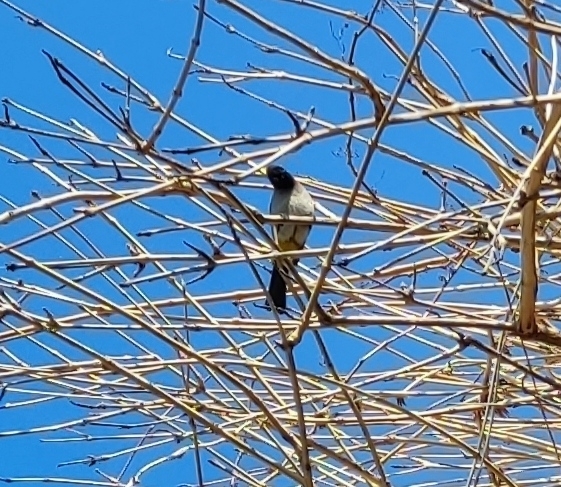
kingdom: Animalia
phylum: Chordata
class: Aves
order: Passeriformes
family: Pycnonotidae
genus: Pycnonotus
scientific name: Pycnonotus xanthopygos
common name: White-spectacled bulbul
